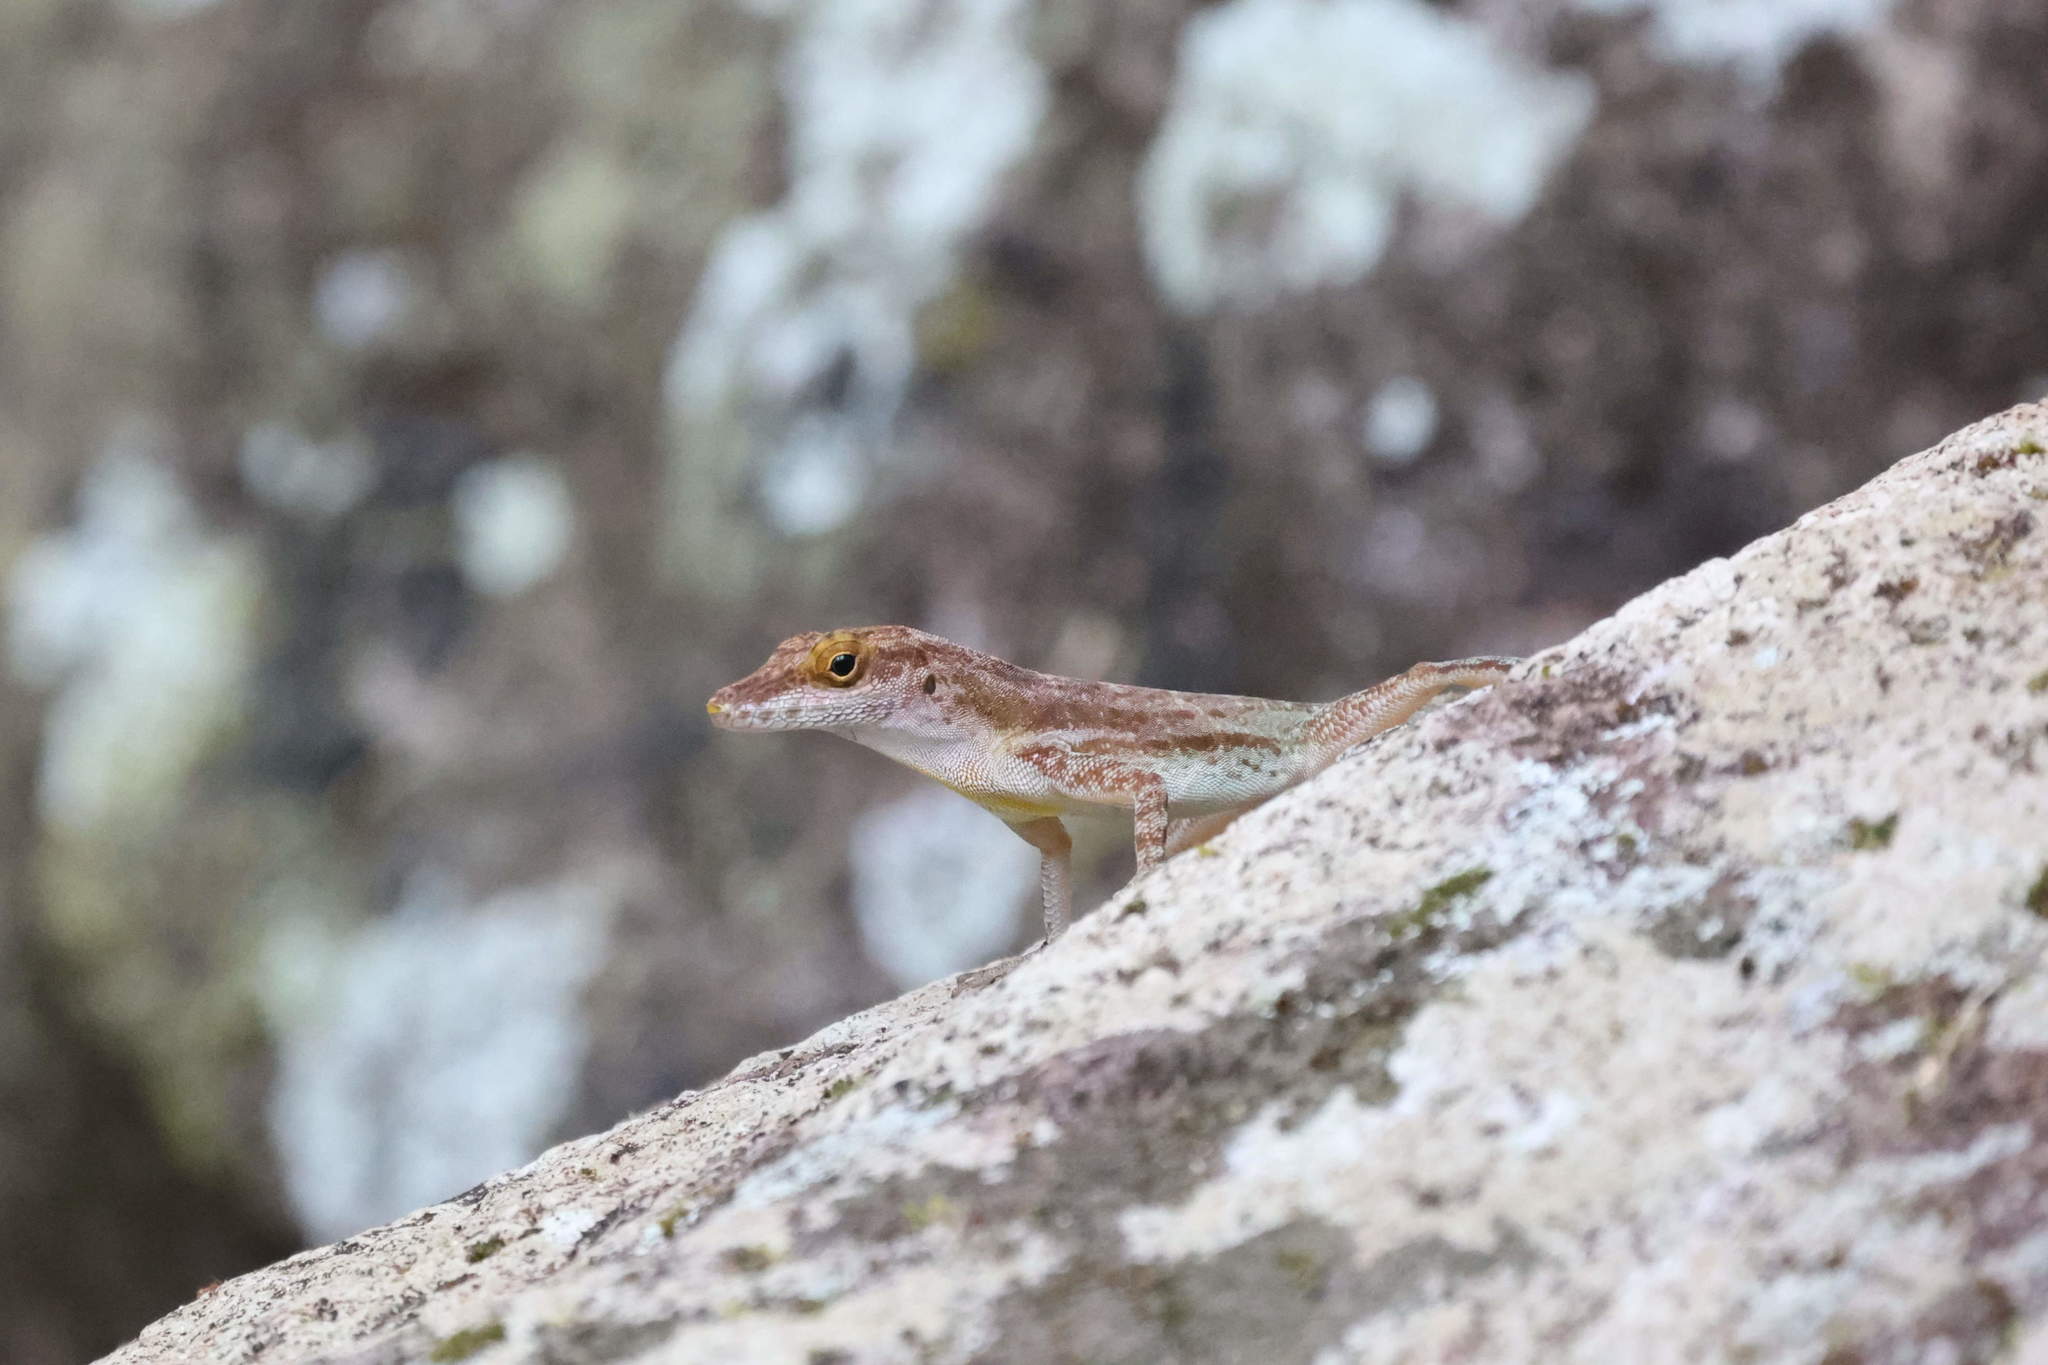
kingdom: Animalia
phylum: Chordata
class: Squamata
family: Dactyloidae
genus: Anolis
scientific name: Anolis marmoratus
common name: Guadeloupe anole
